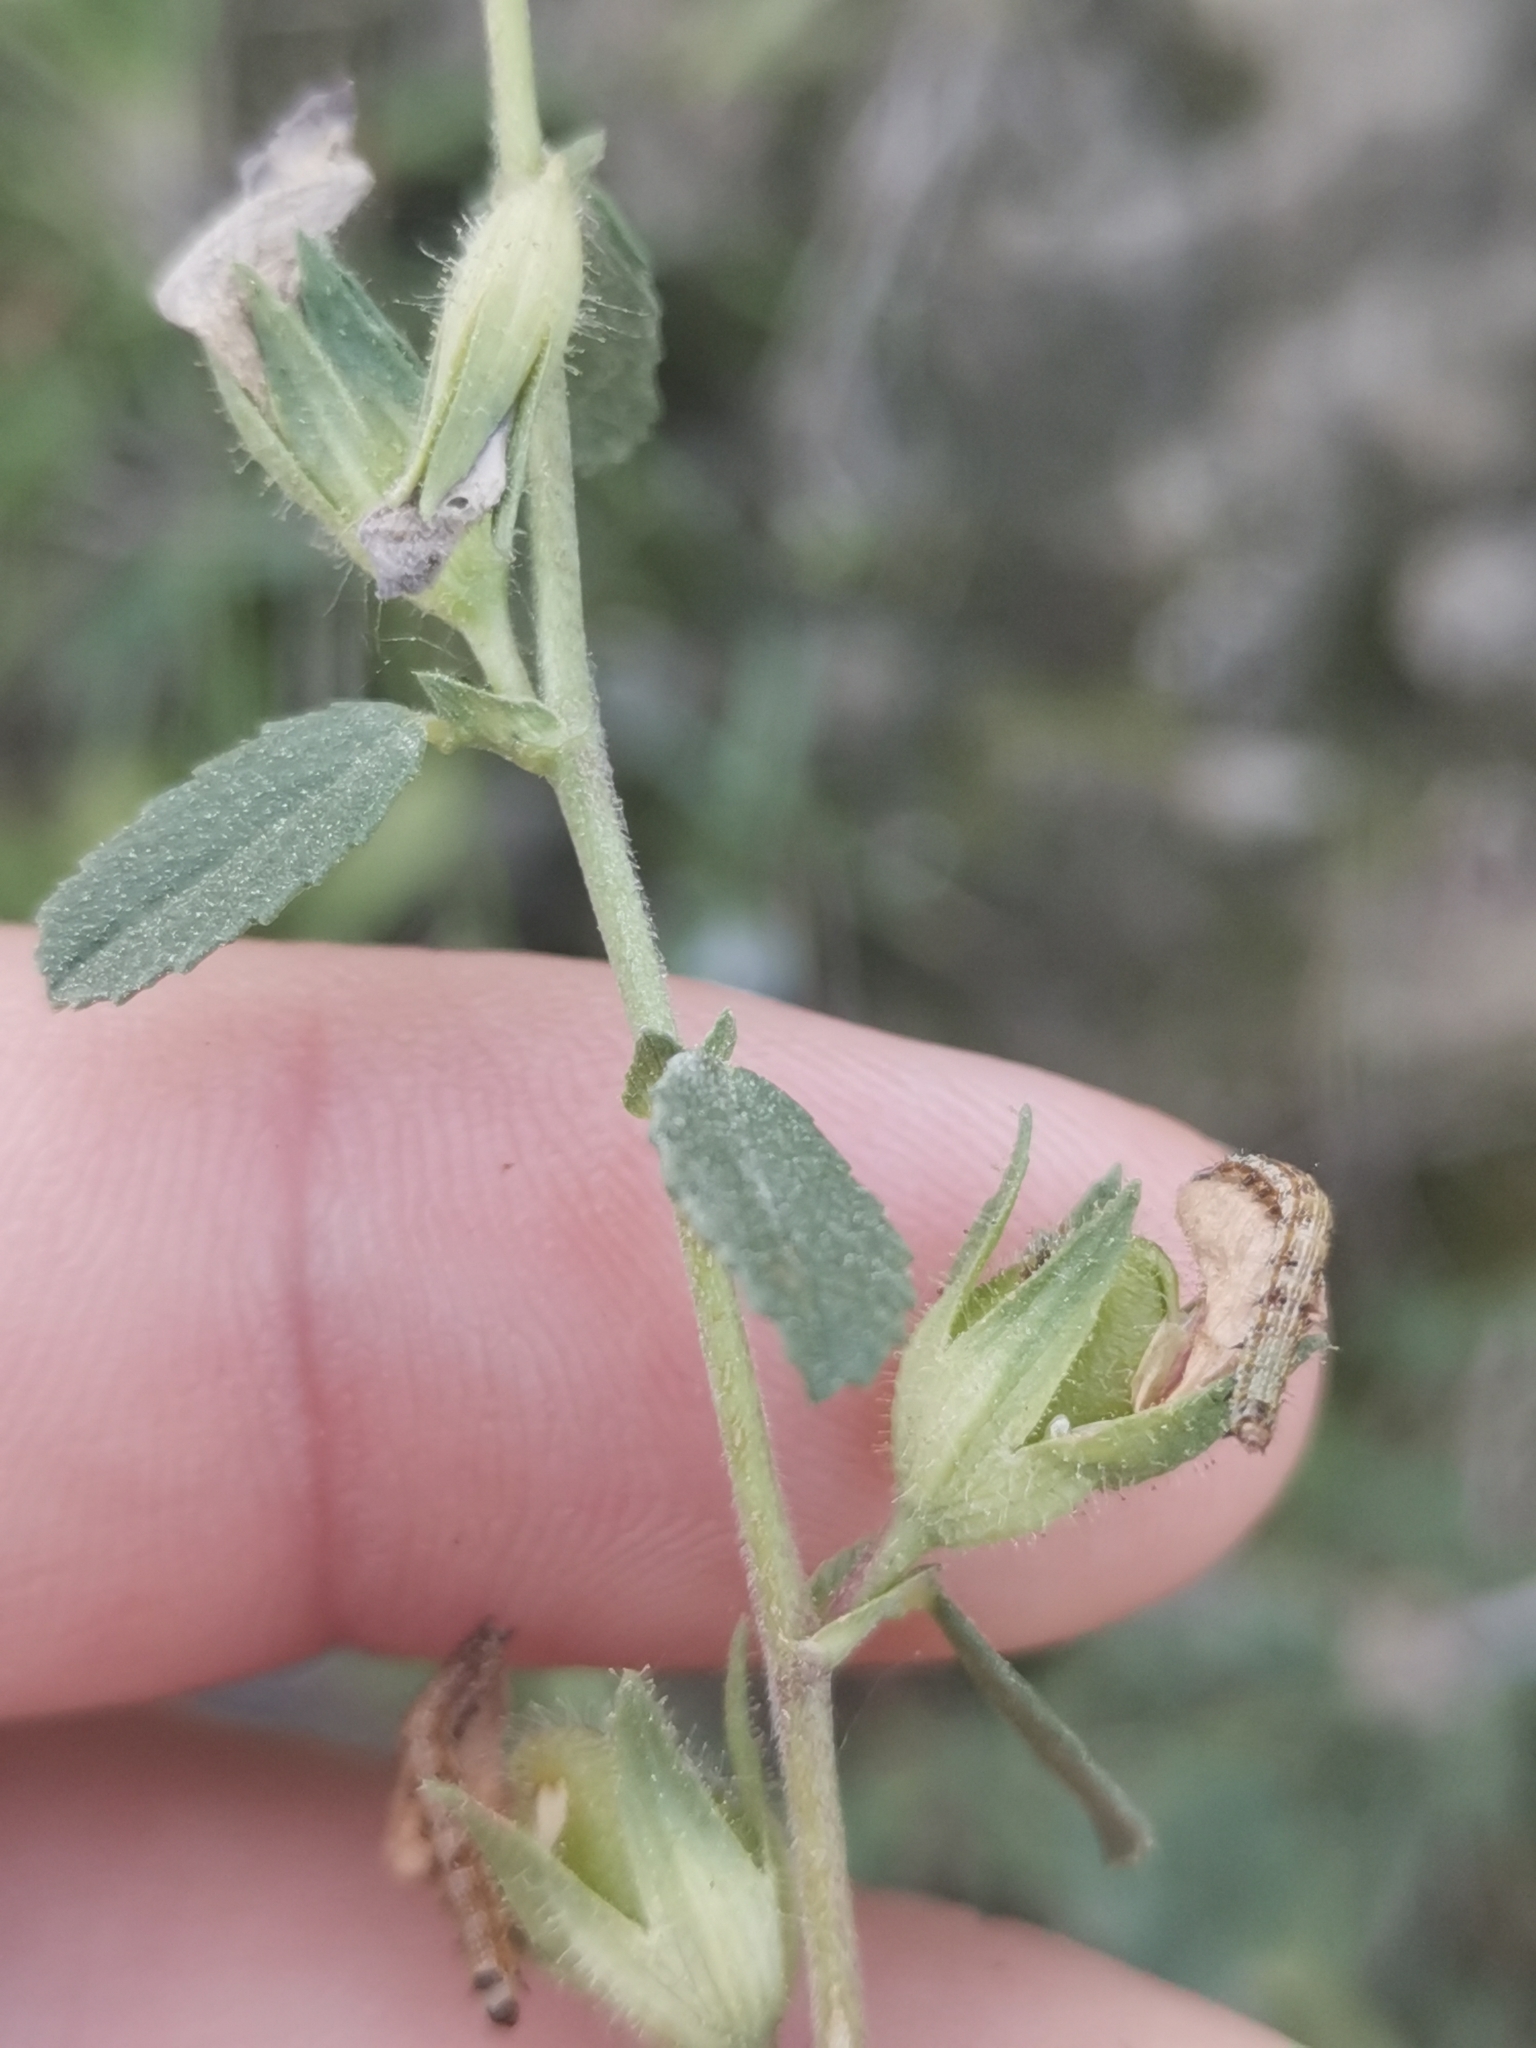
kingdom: Plantae
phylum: Tracheophyta
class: Magnoliopsida
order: Fabales
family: Fabaceae
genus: Ononis
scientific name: Ononis arvensis
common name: Field restharrow
